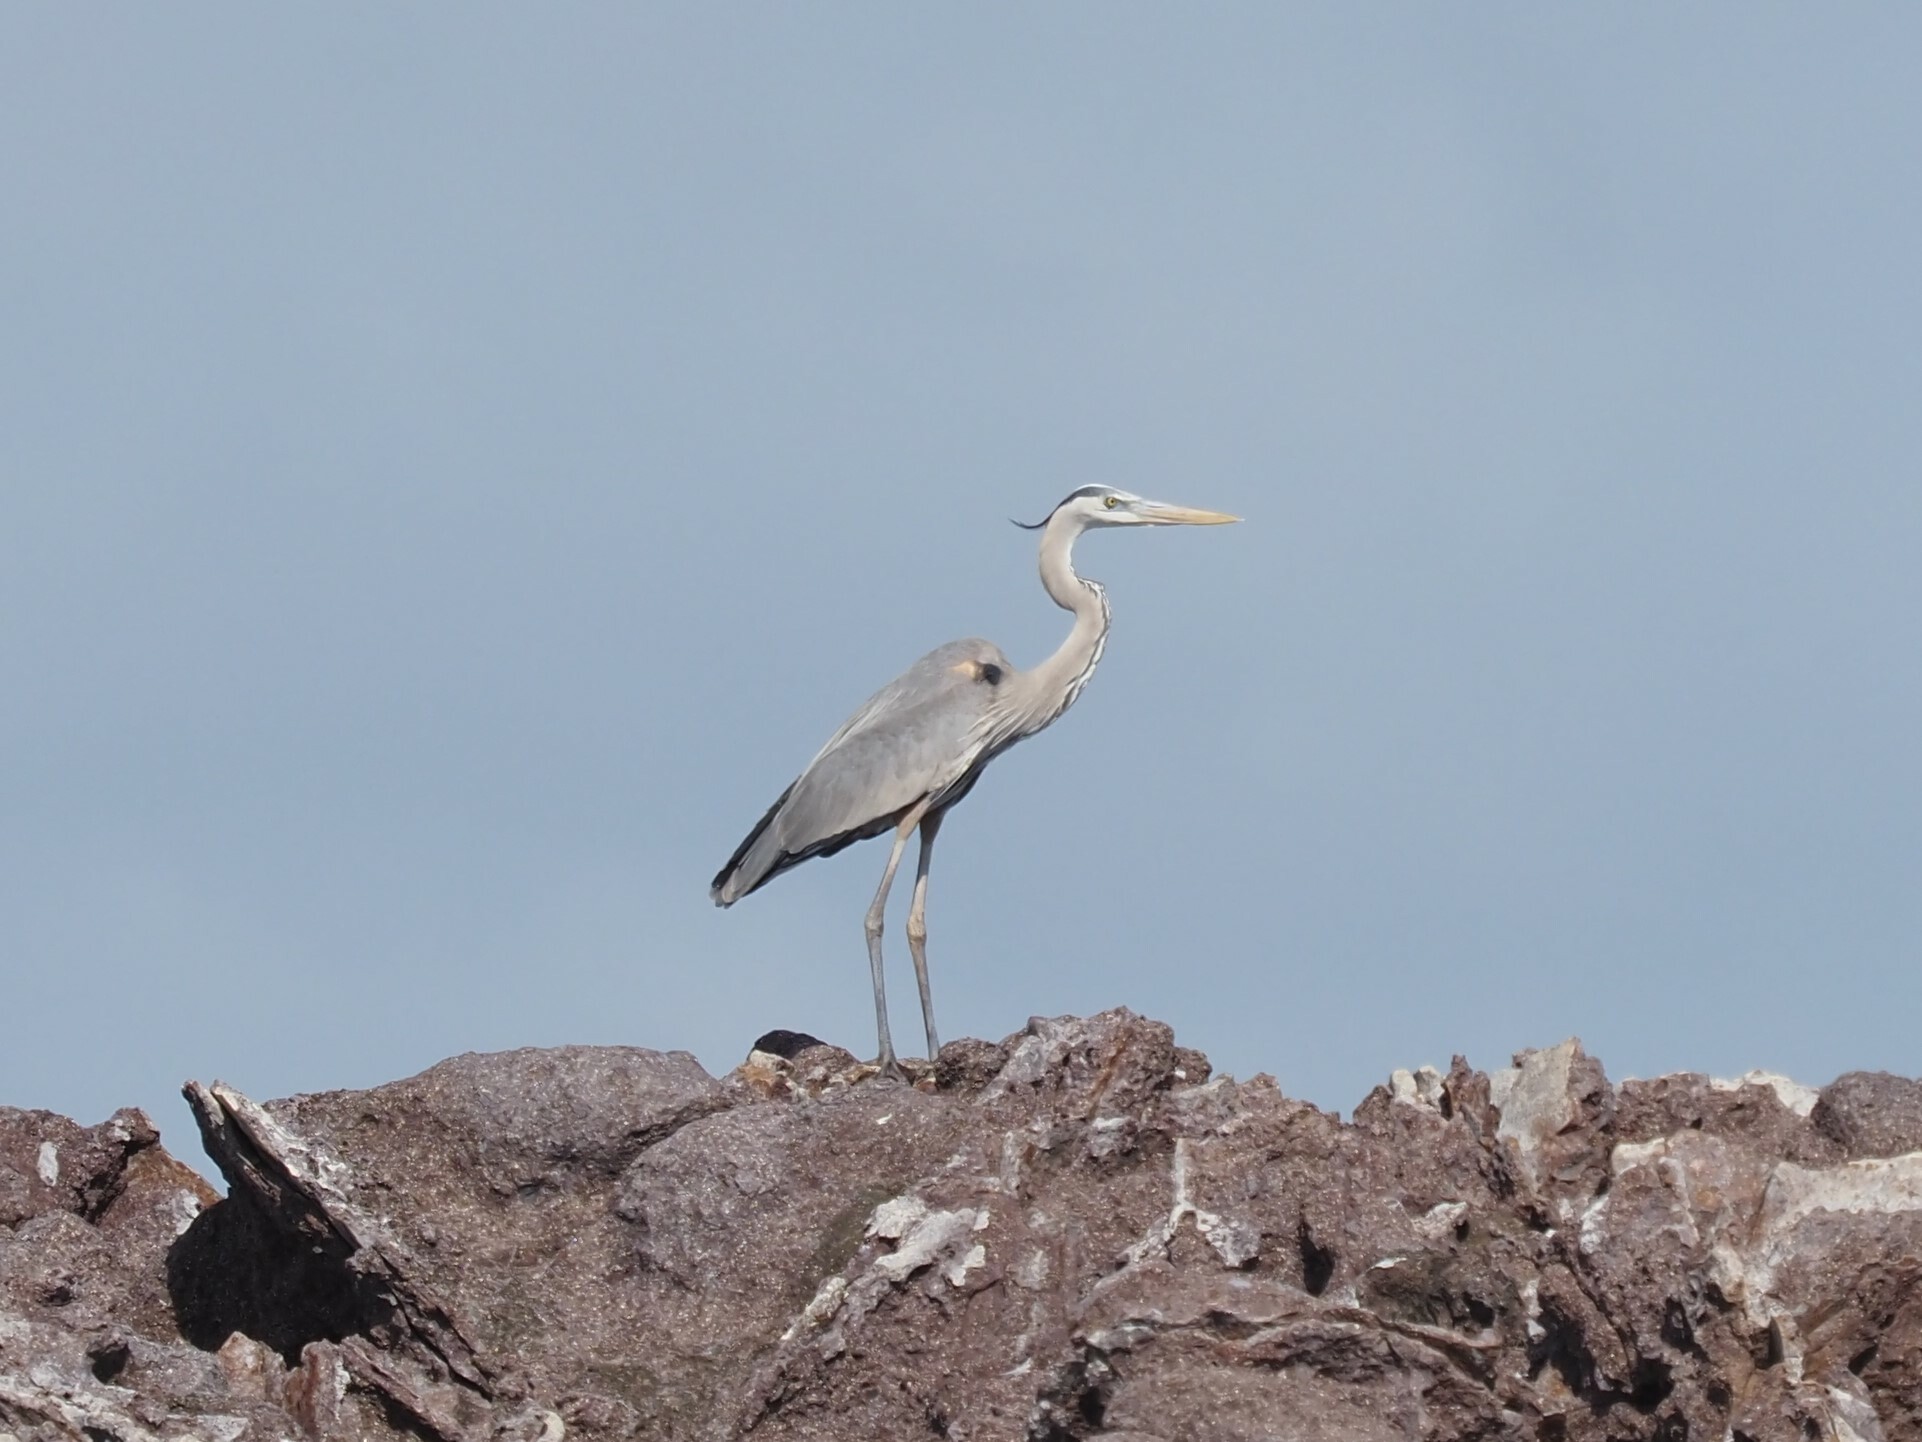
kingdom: Animalia
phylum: Chordata
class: Aves
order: Pelecaniformes
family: Ardeidae
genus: Ardea
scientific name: Ardea herodias
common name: Great blue heron
